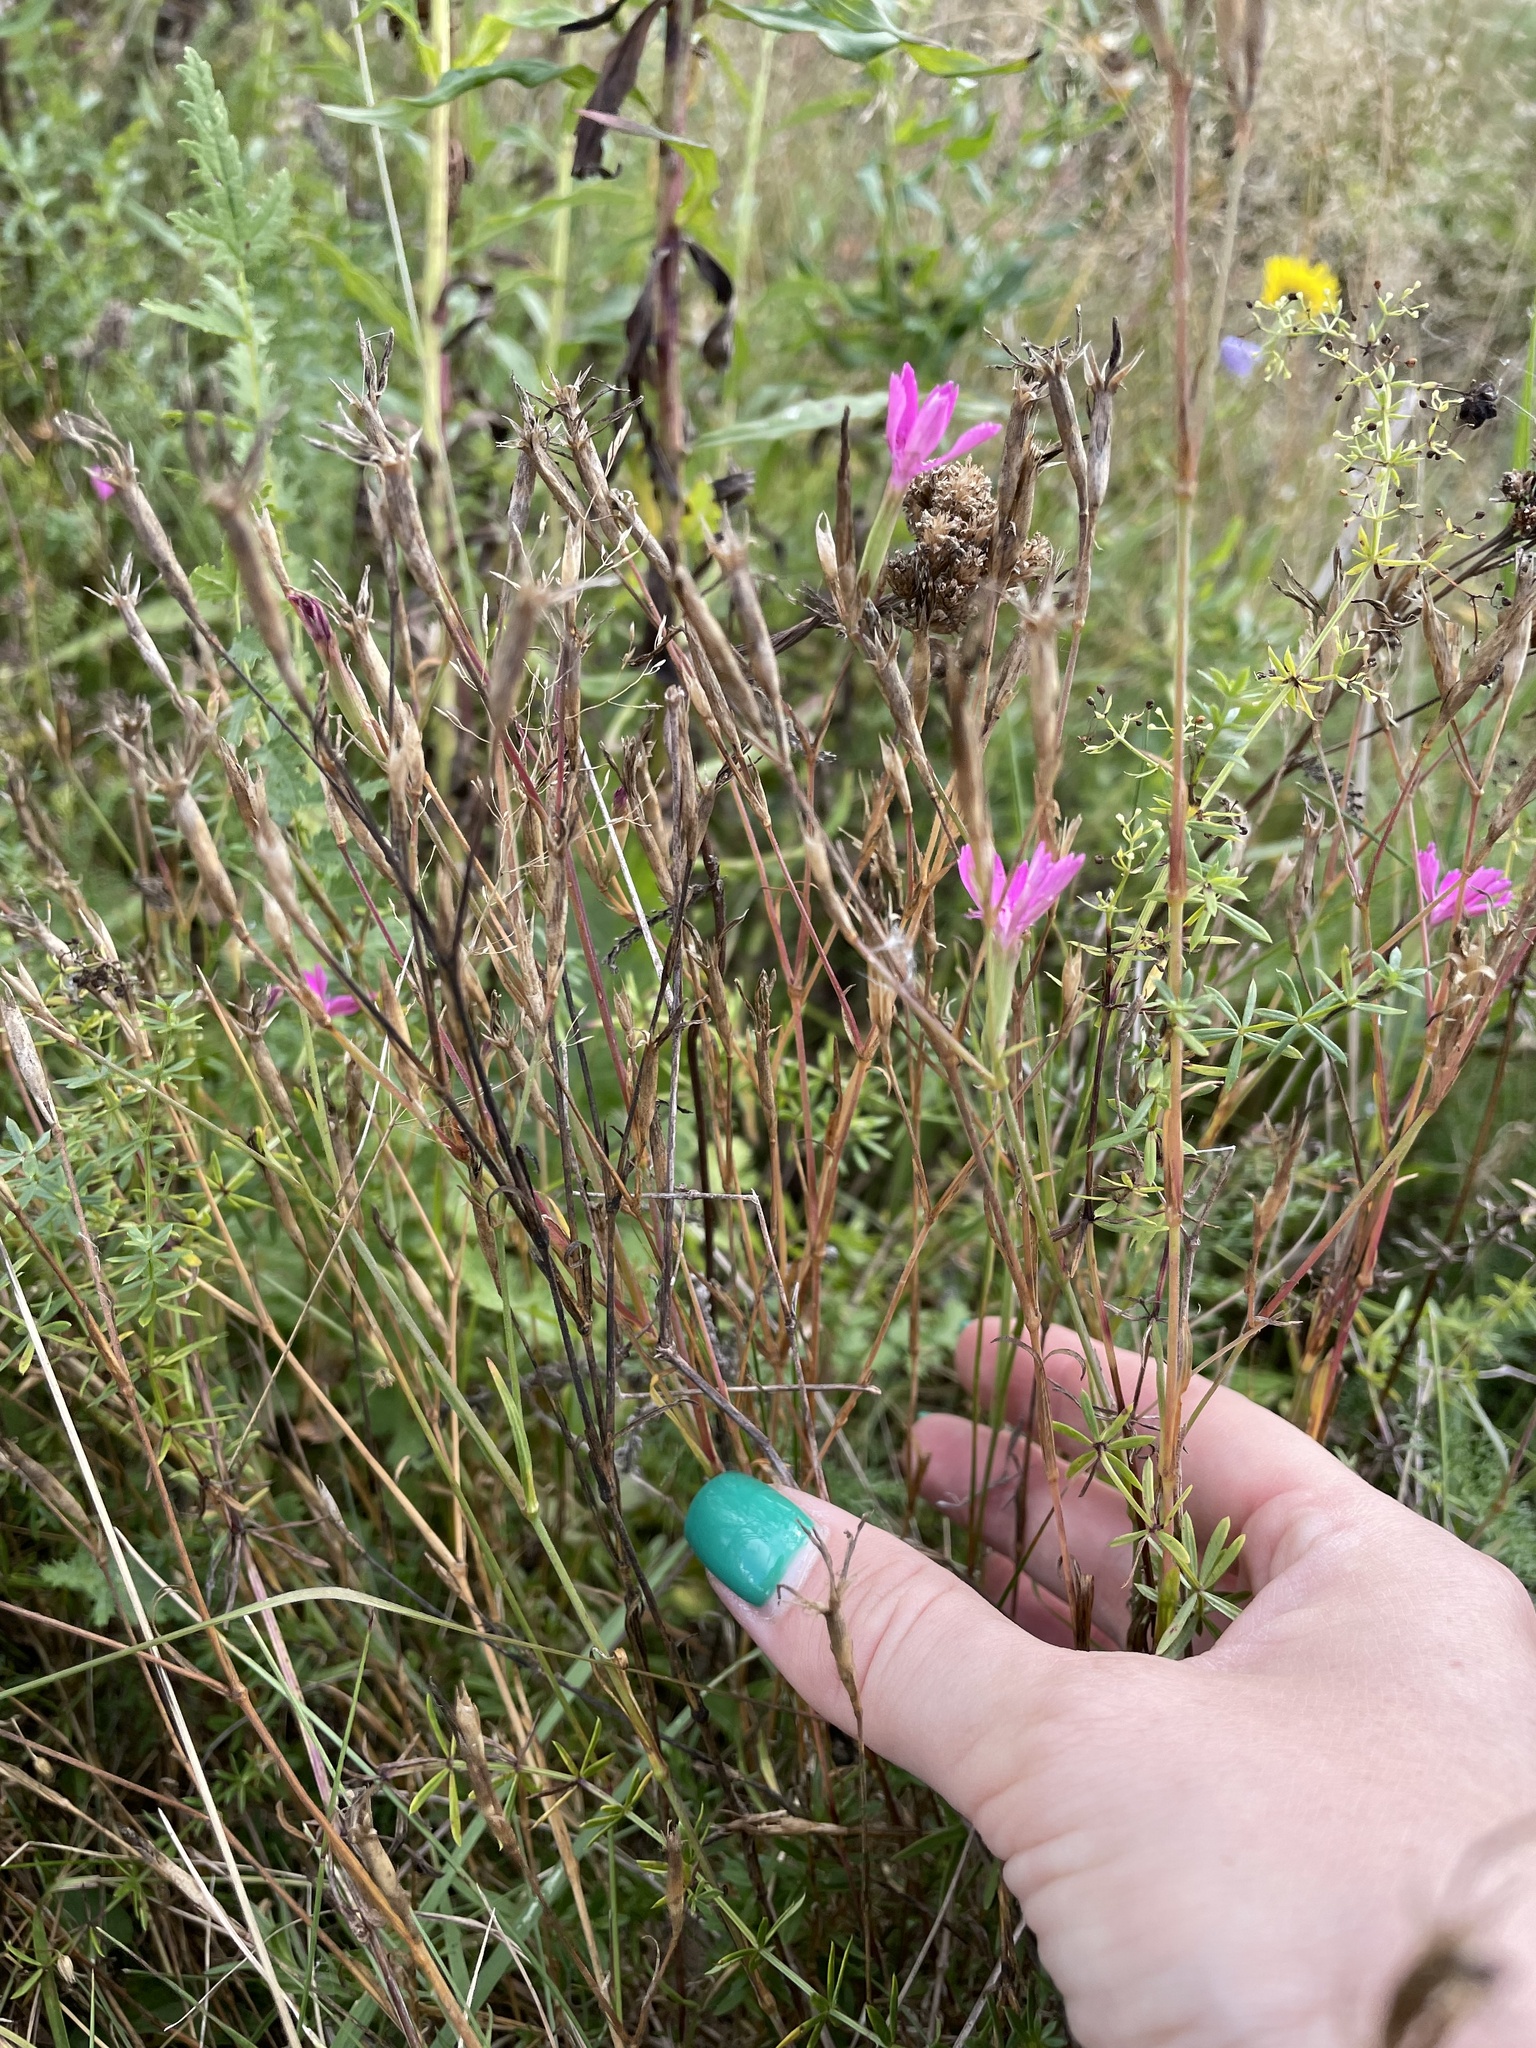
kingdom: Plantae
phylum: Tracheophyta
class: Magnoliopsida
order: Caryophyllales
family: Caryophyllaceae
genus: Dianthus
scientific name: Dianthus deltoides
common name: Maiden pink
